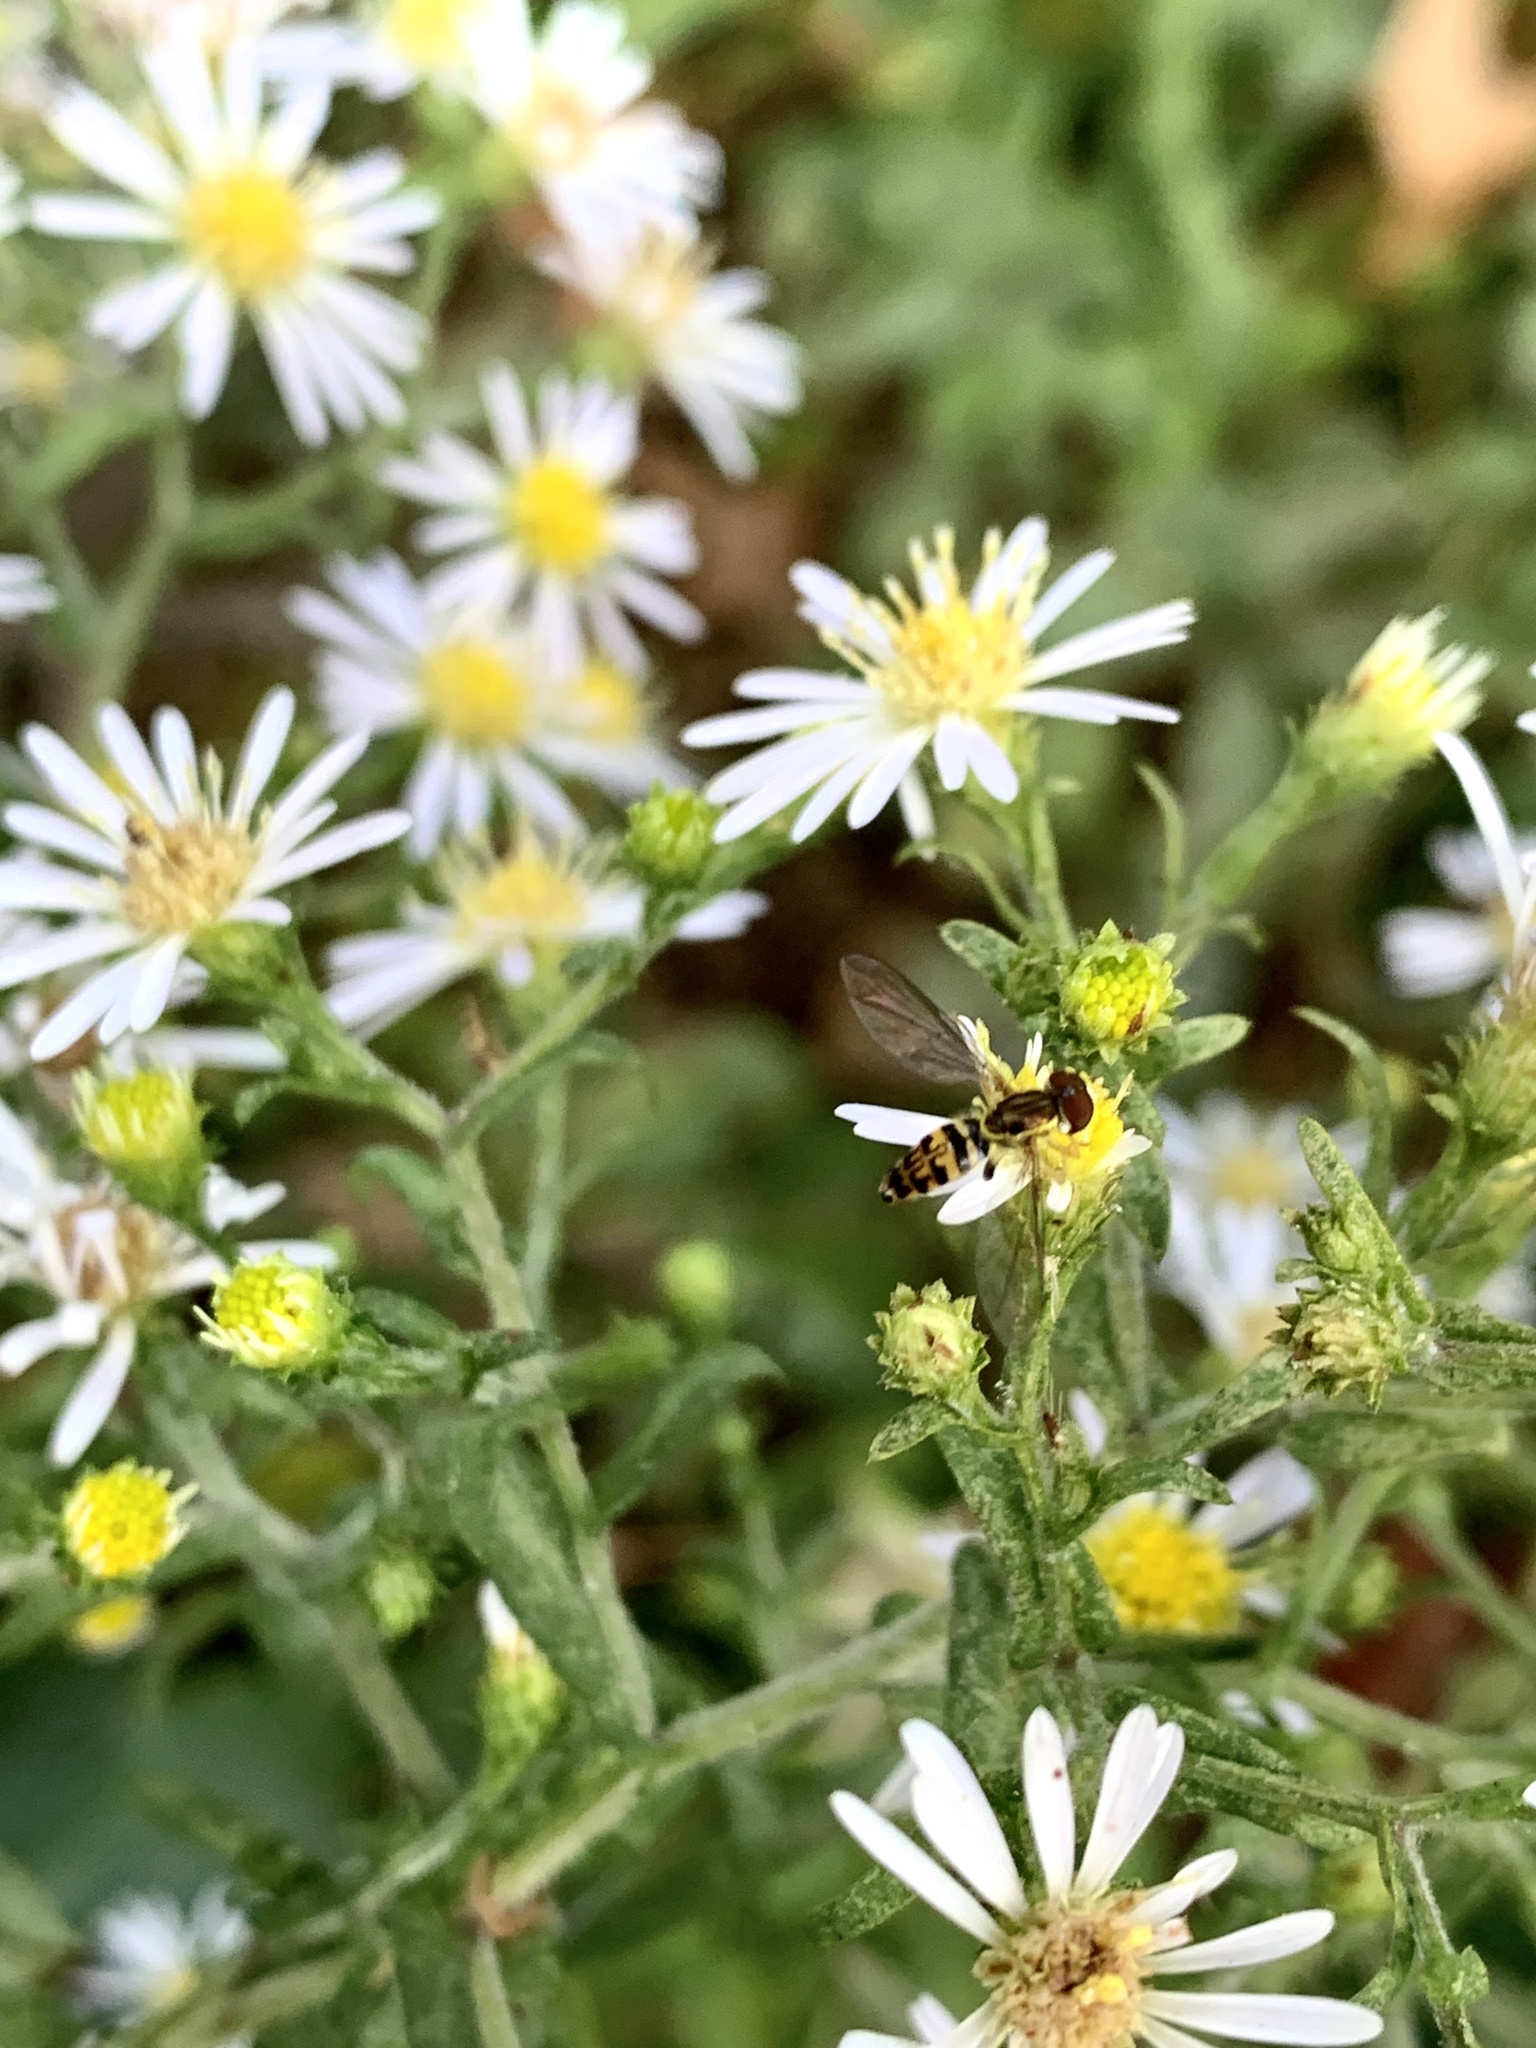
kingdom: Animalia
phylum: Arthropoda
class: Insecta
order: Diptera
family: Syrphidae
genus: Toxomerus
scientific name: Toxomerus geminatus
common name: Eastern calligrapher
